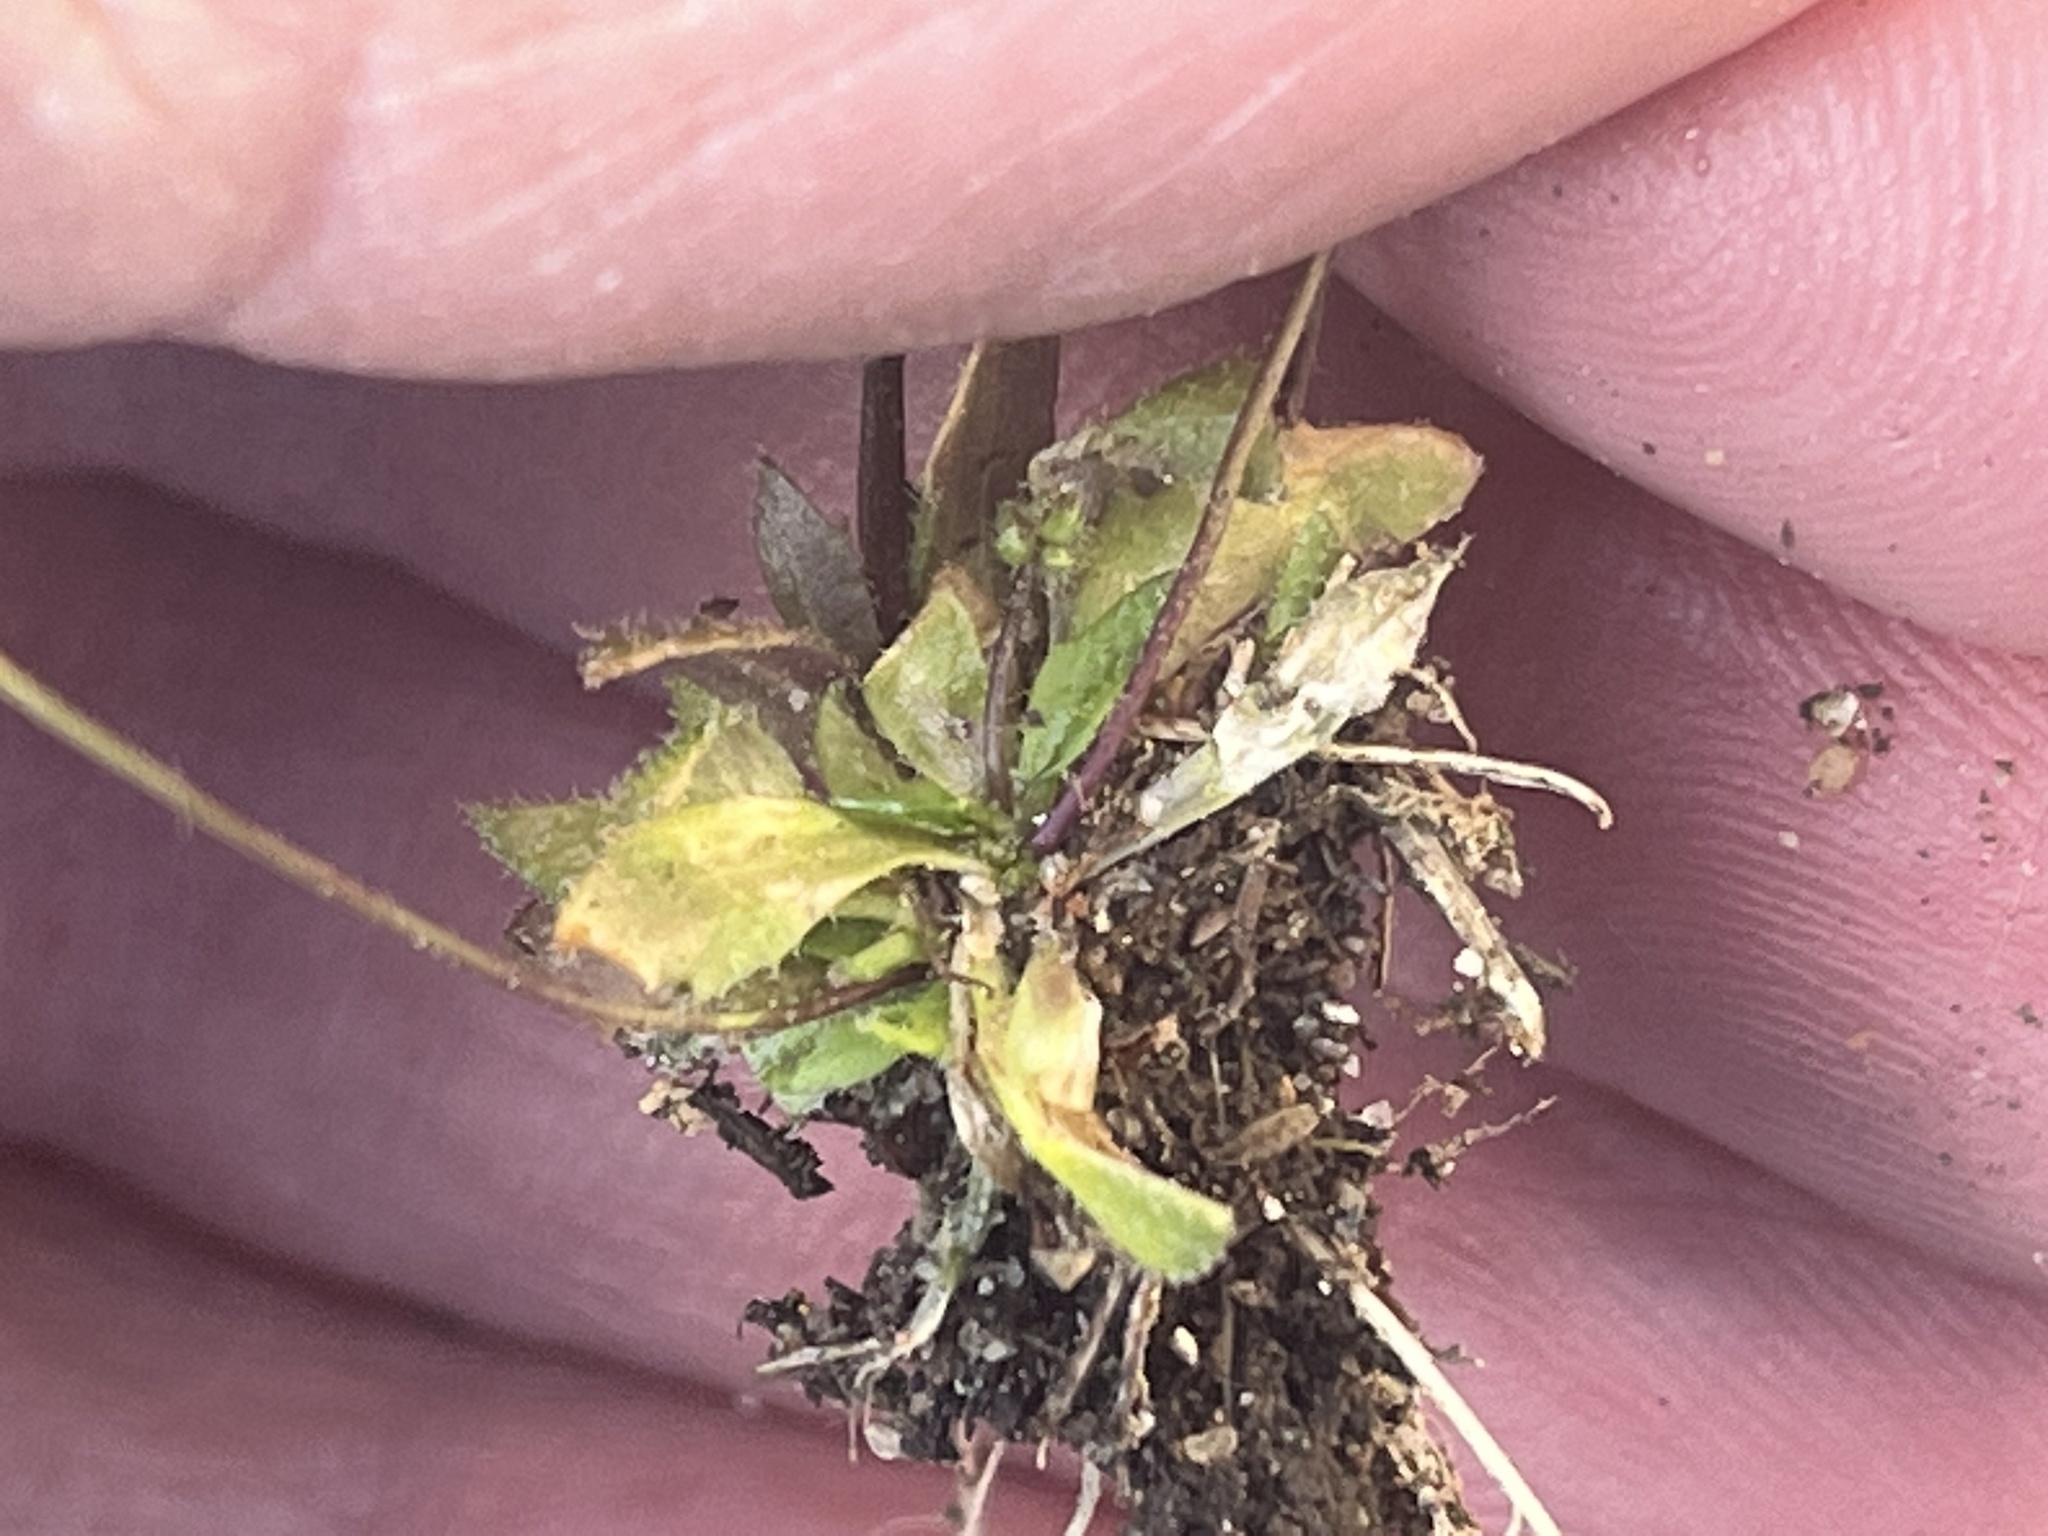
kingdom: Plantae
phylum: Tracheophyta
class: Magnoliopsida
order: Brassicales
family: Brassicaceae
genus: Draba
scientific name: Draba verna
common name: Spring draba
